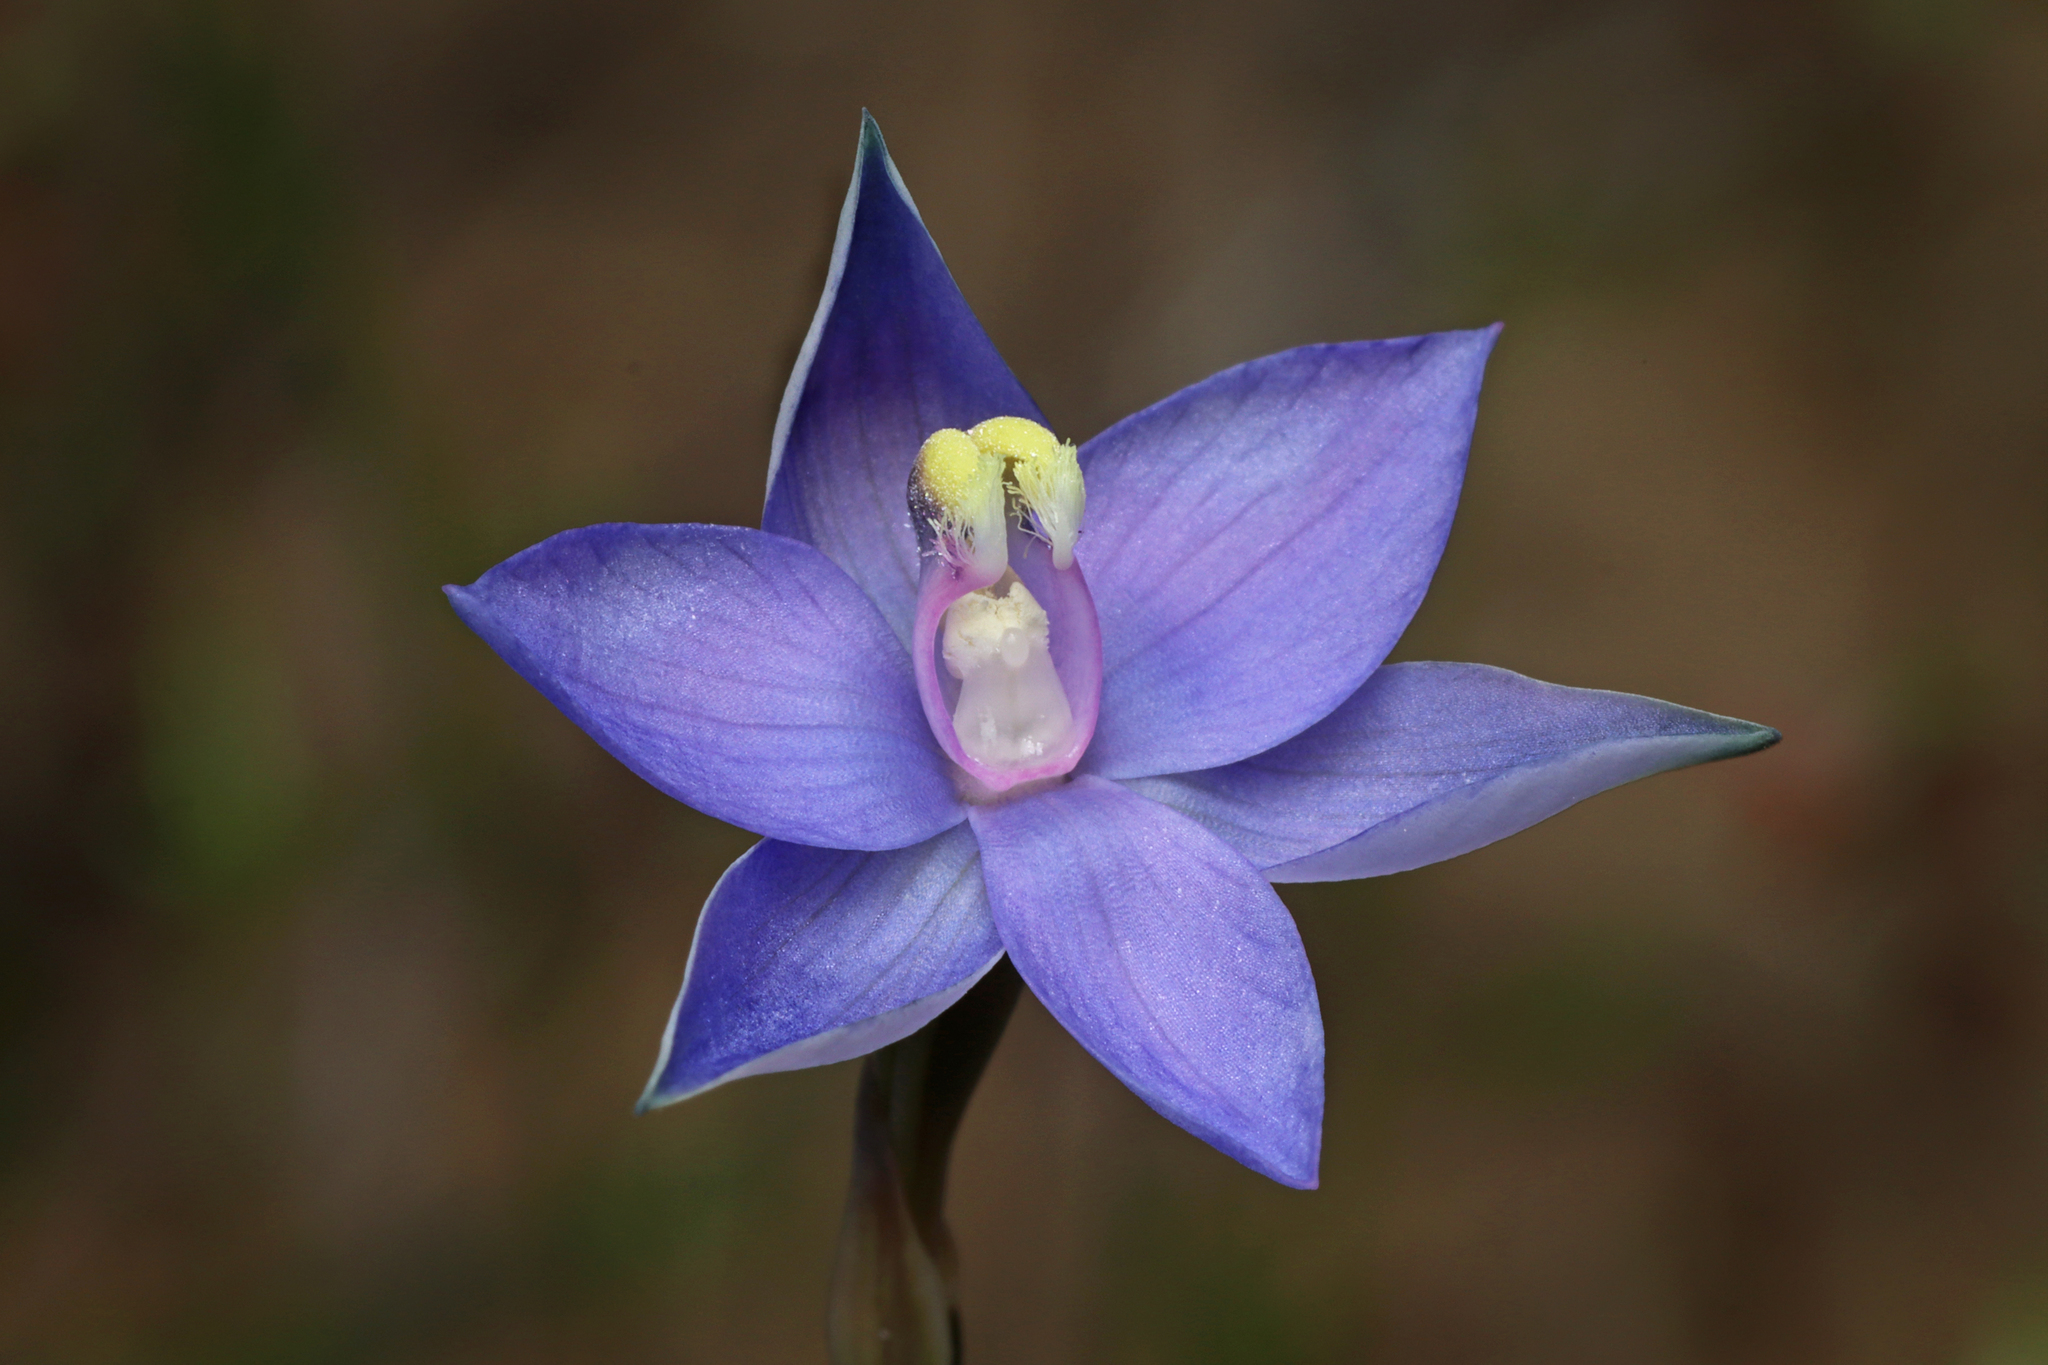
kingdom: Plantae
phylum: Tracheophyta
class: Liliopsida
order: Asparagales
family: Orchidaceae
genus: Thelymitra
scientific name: Thelymitra inflata
